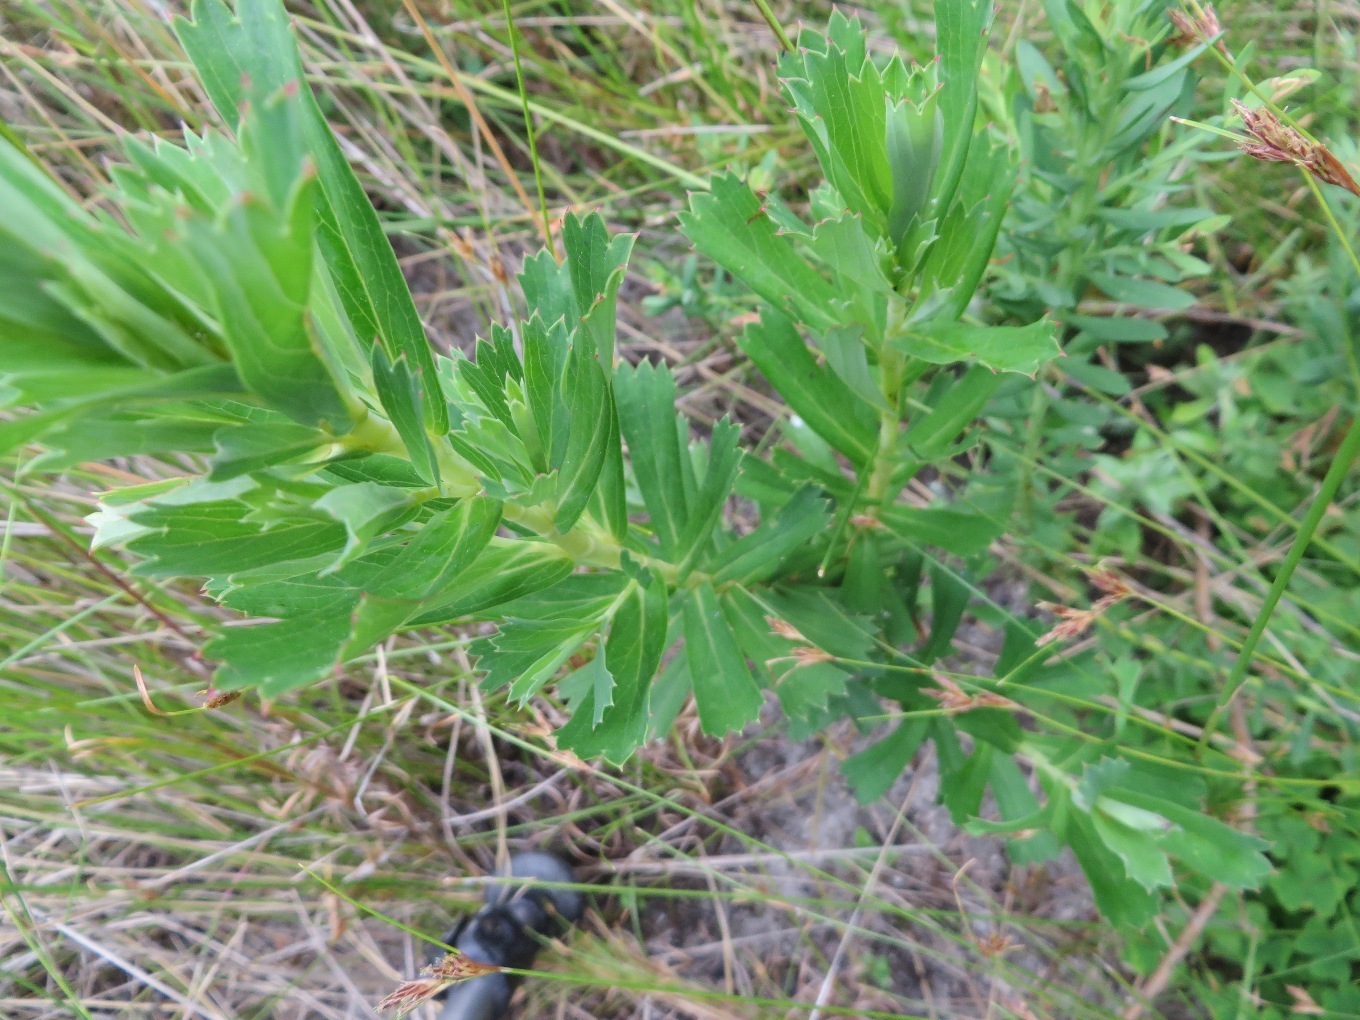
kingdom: Plantae
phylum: Tracheophyta
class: Magnoliopsida
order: Rosales
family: Rosaceae
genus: Cliffortia
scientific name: Cliffortia cuneata
